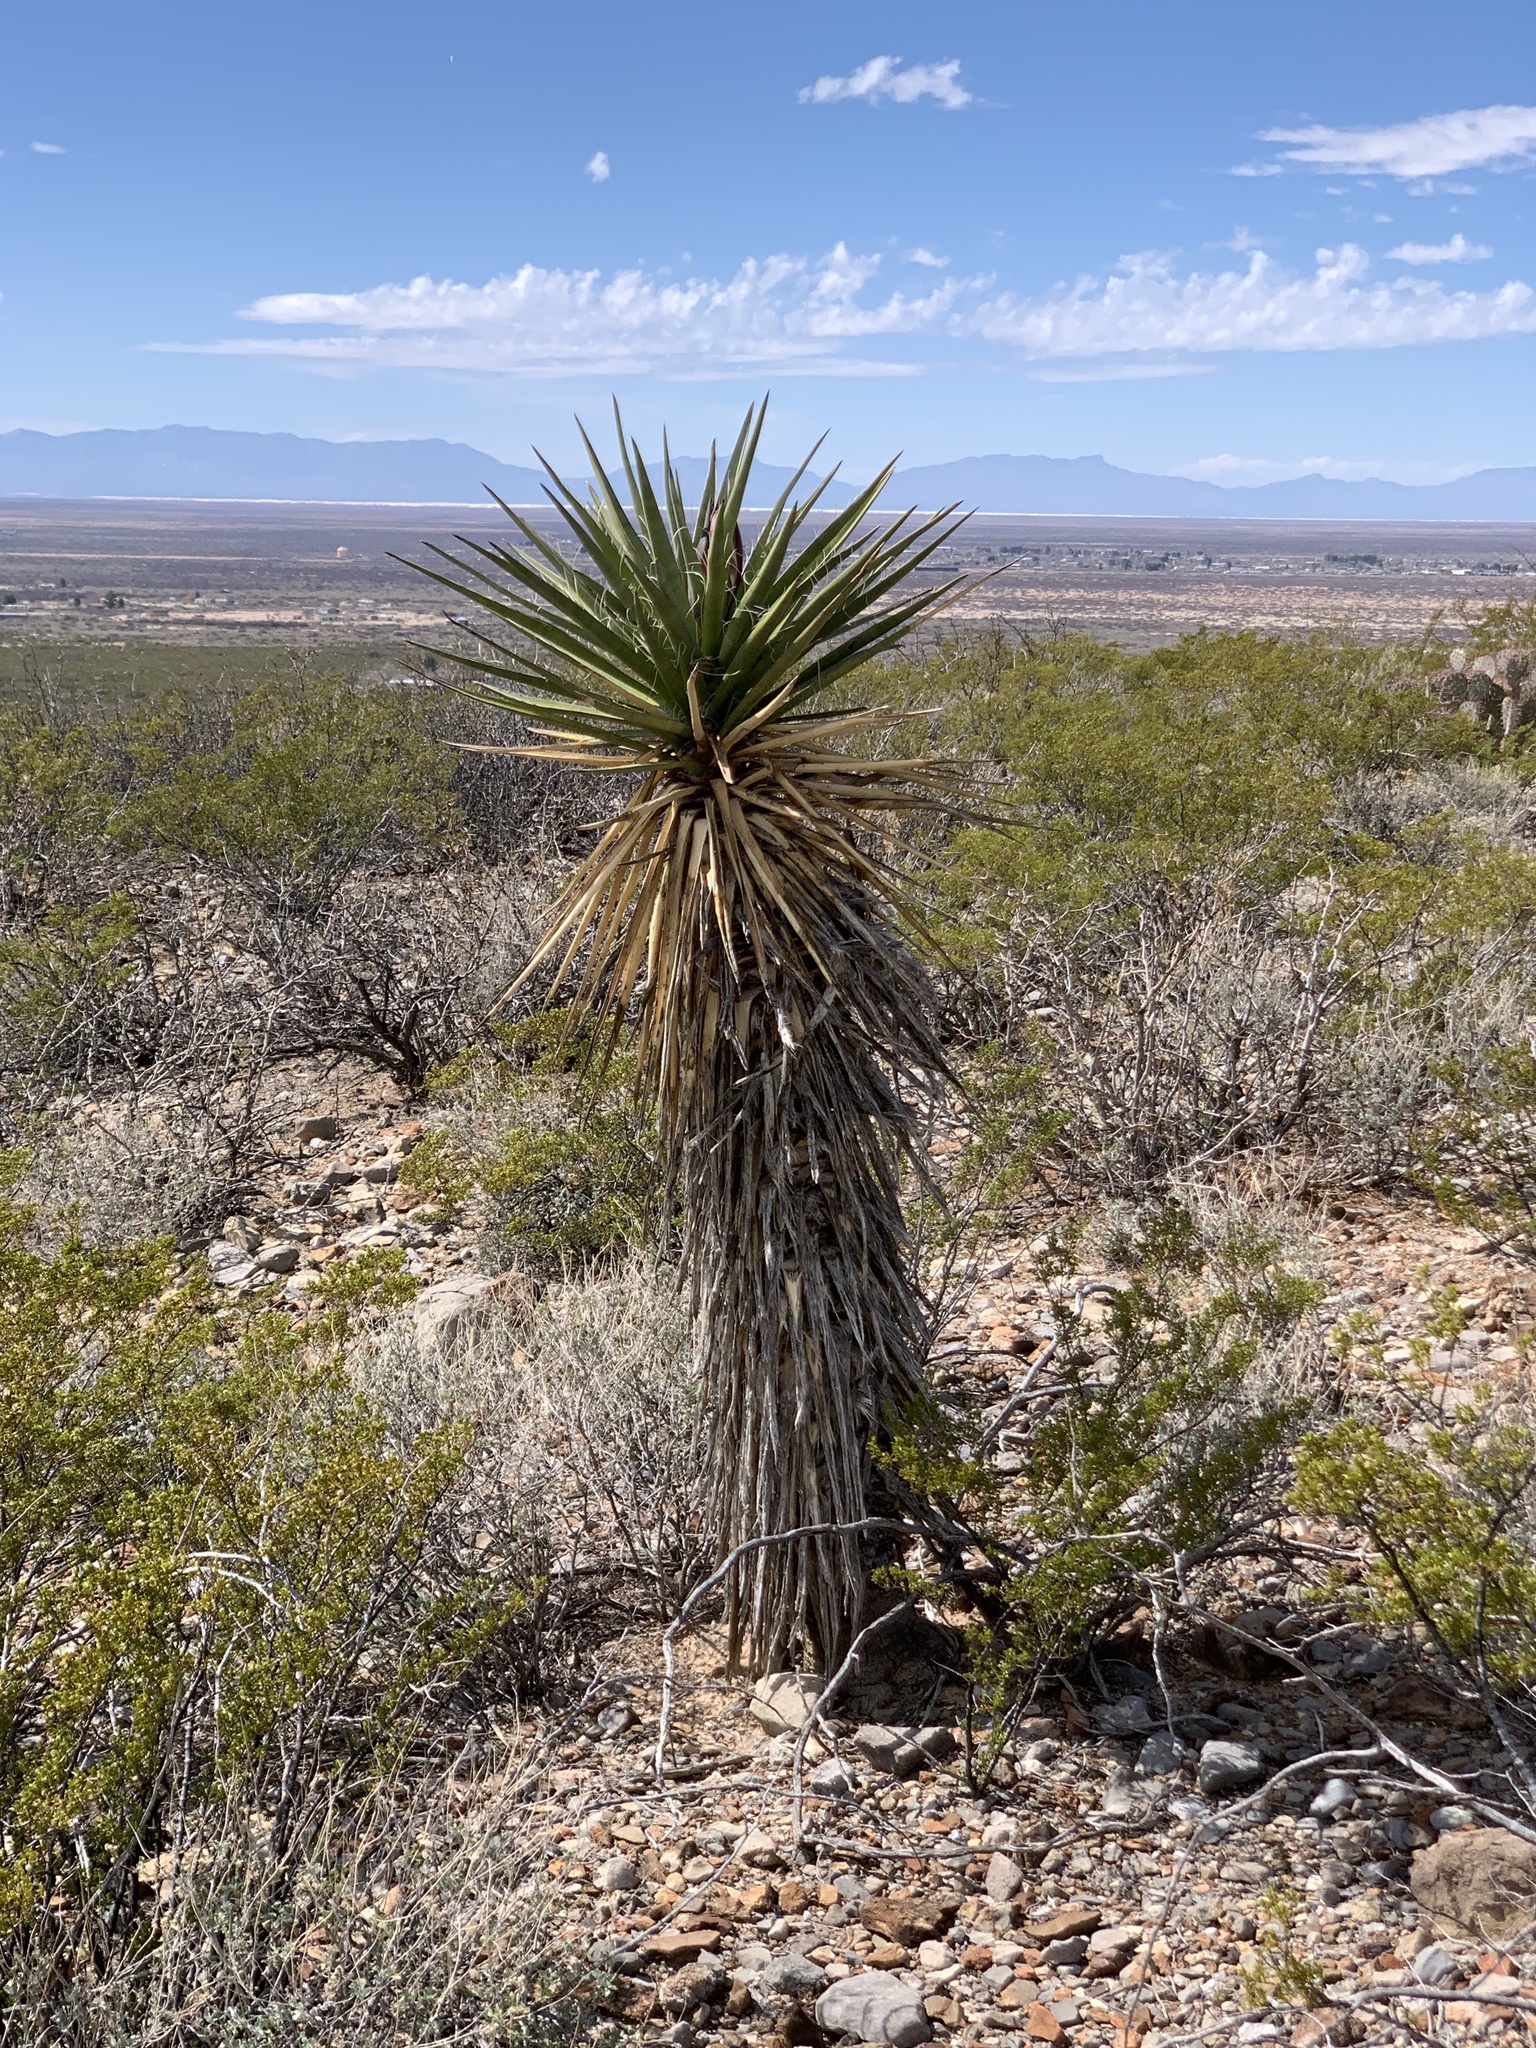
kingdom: Plantae
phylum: Tracheophyta
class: Liliopsida
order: Asparagales
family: Asparagaceae
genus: Yucca
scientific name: Yucca treculiana
